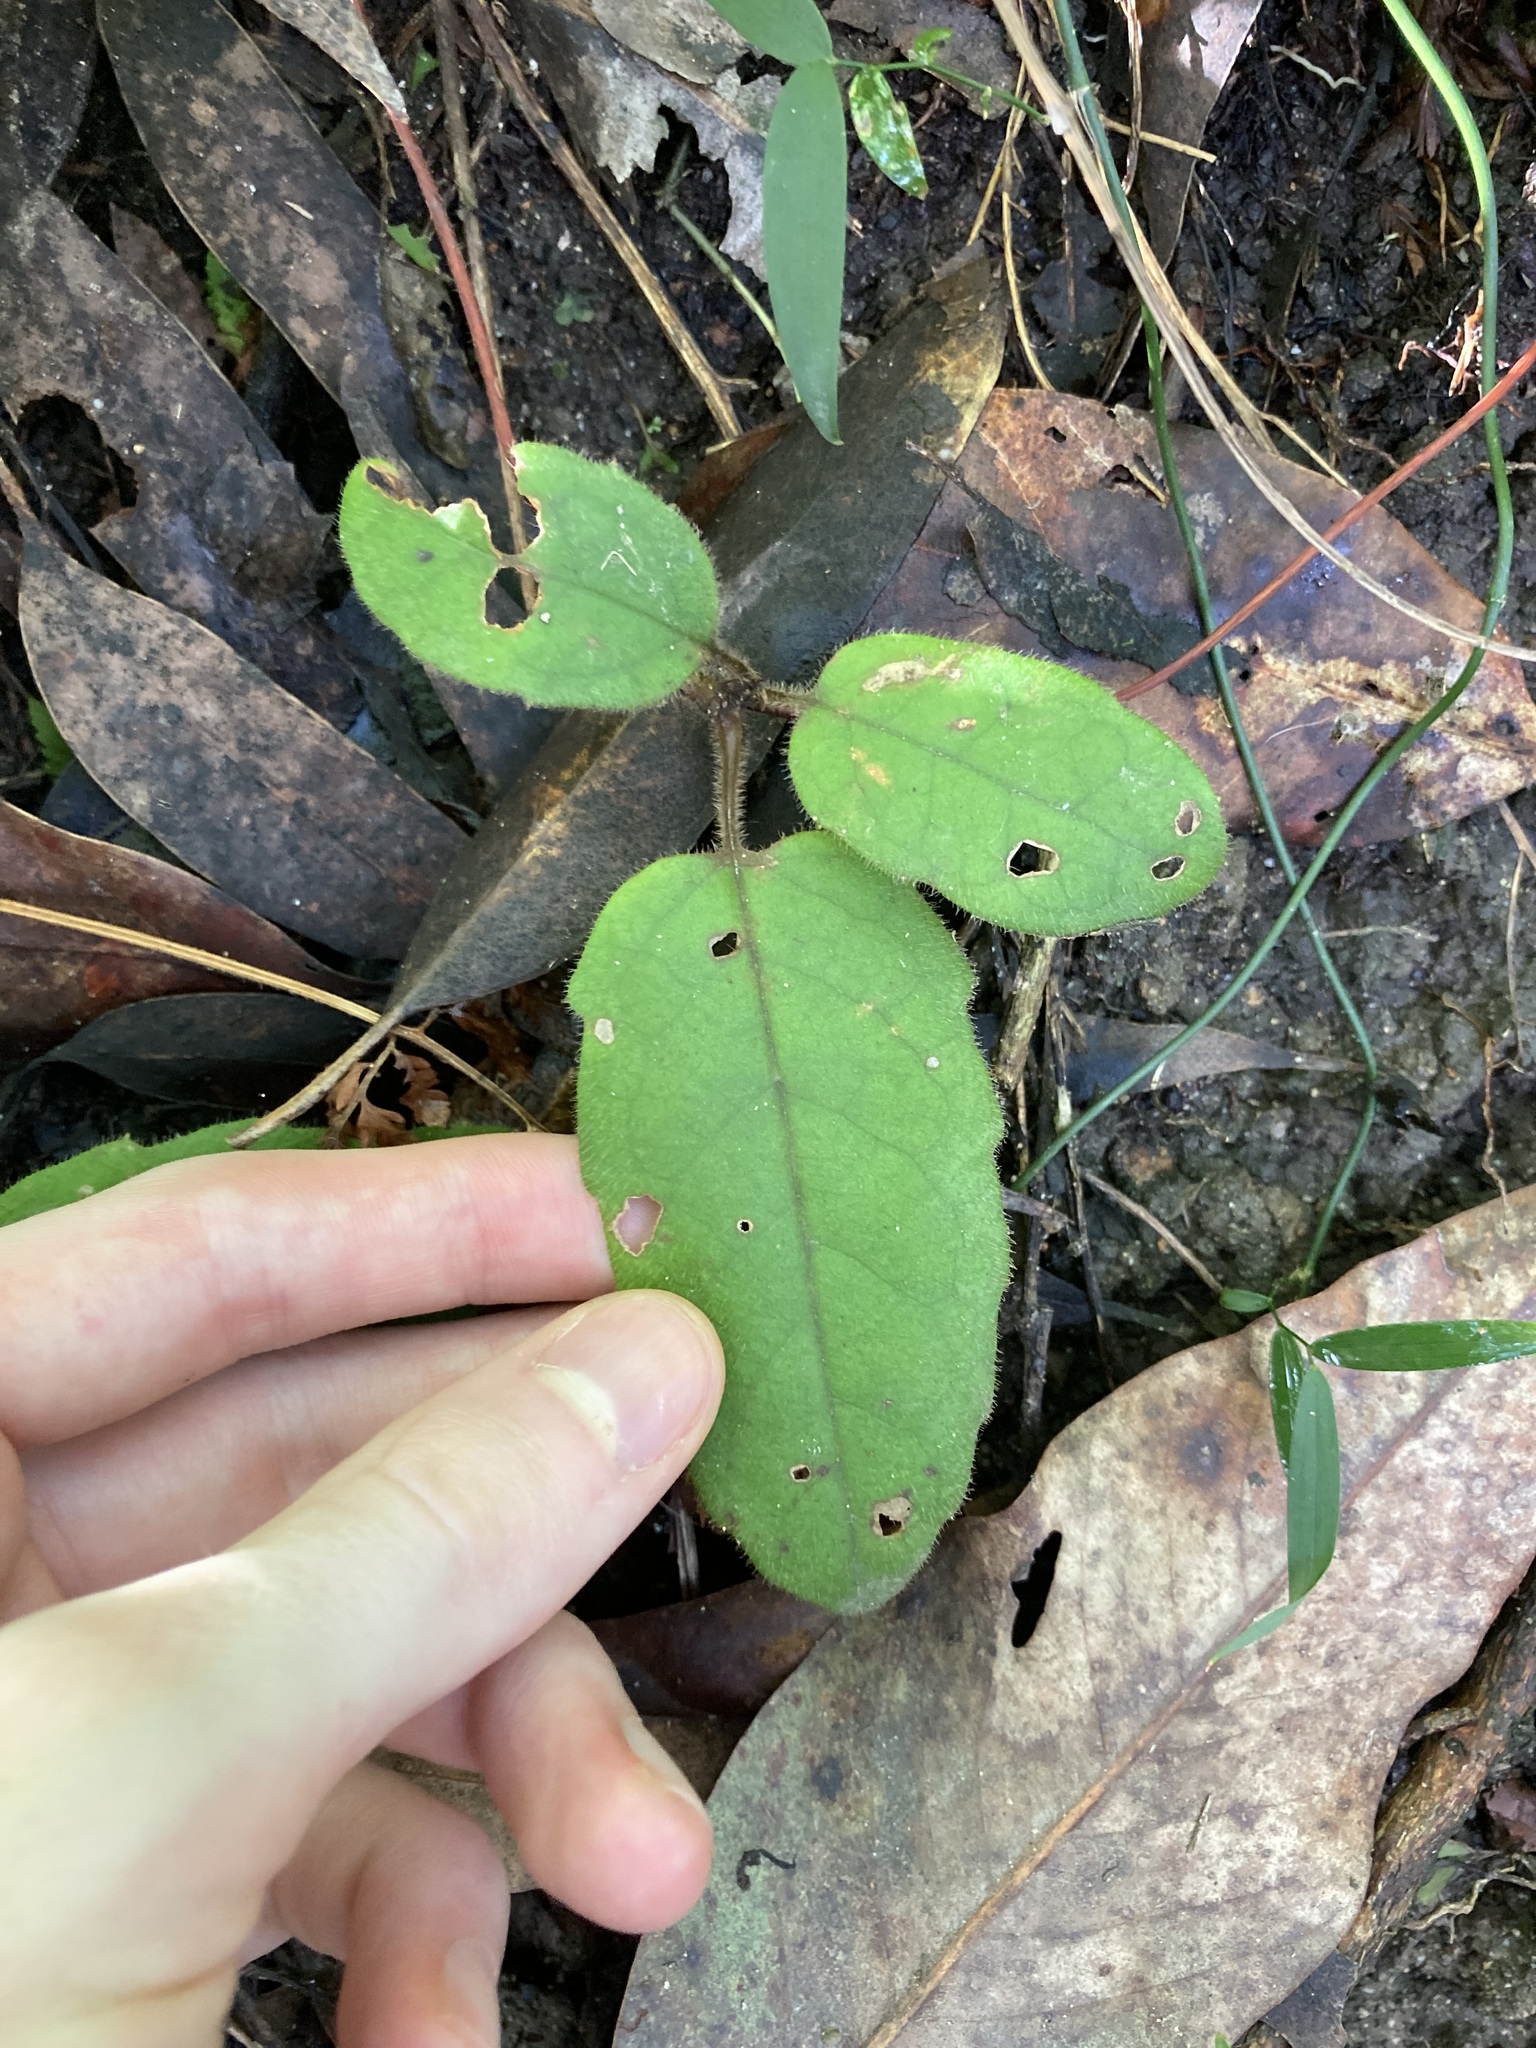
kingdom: Plantae
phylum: Tracheophyta
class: Magnoliopsida
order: Dilleniales
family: Dilleniaceae
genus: Hibbertia
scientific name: Hibbertia dentata
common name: Trailing guinea-flower
